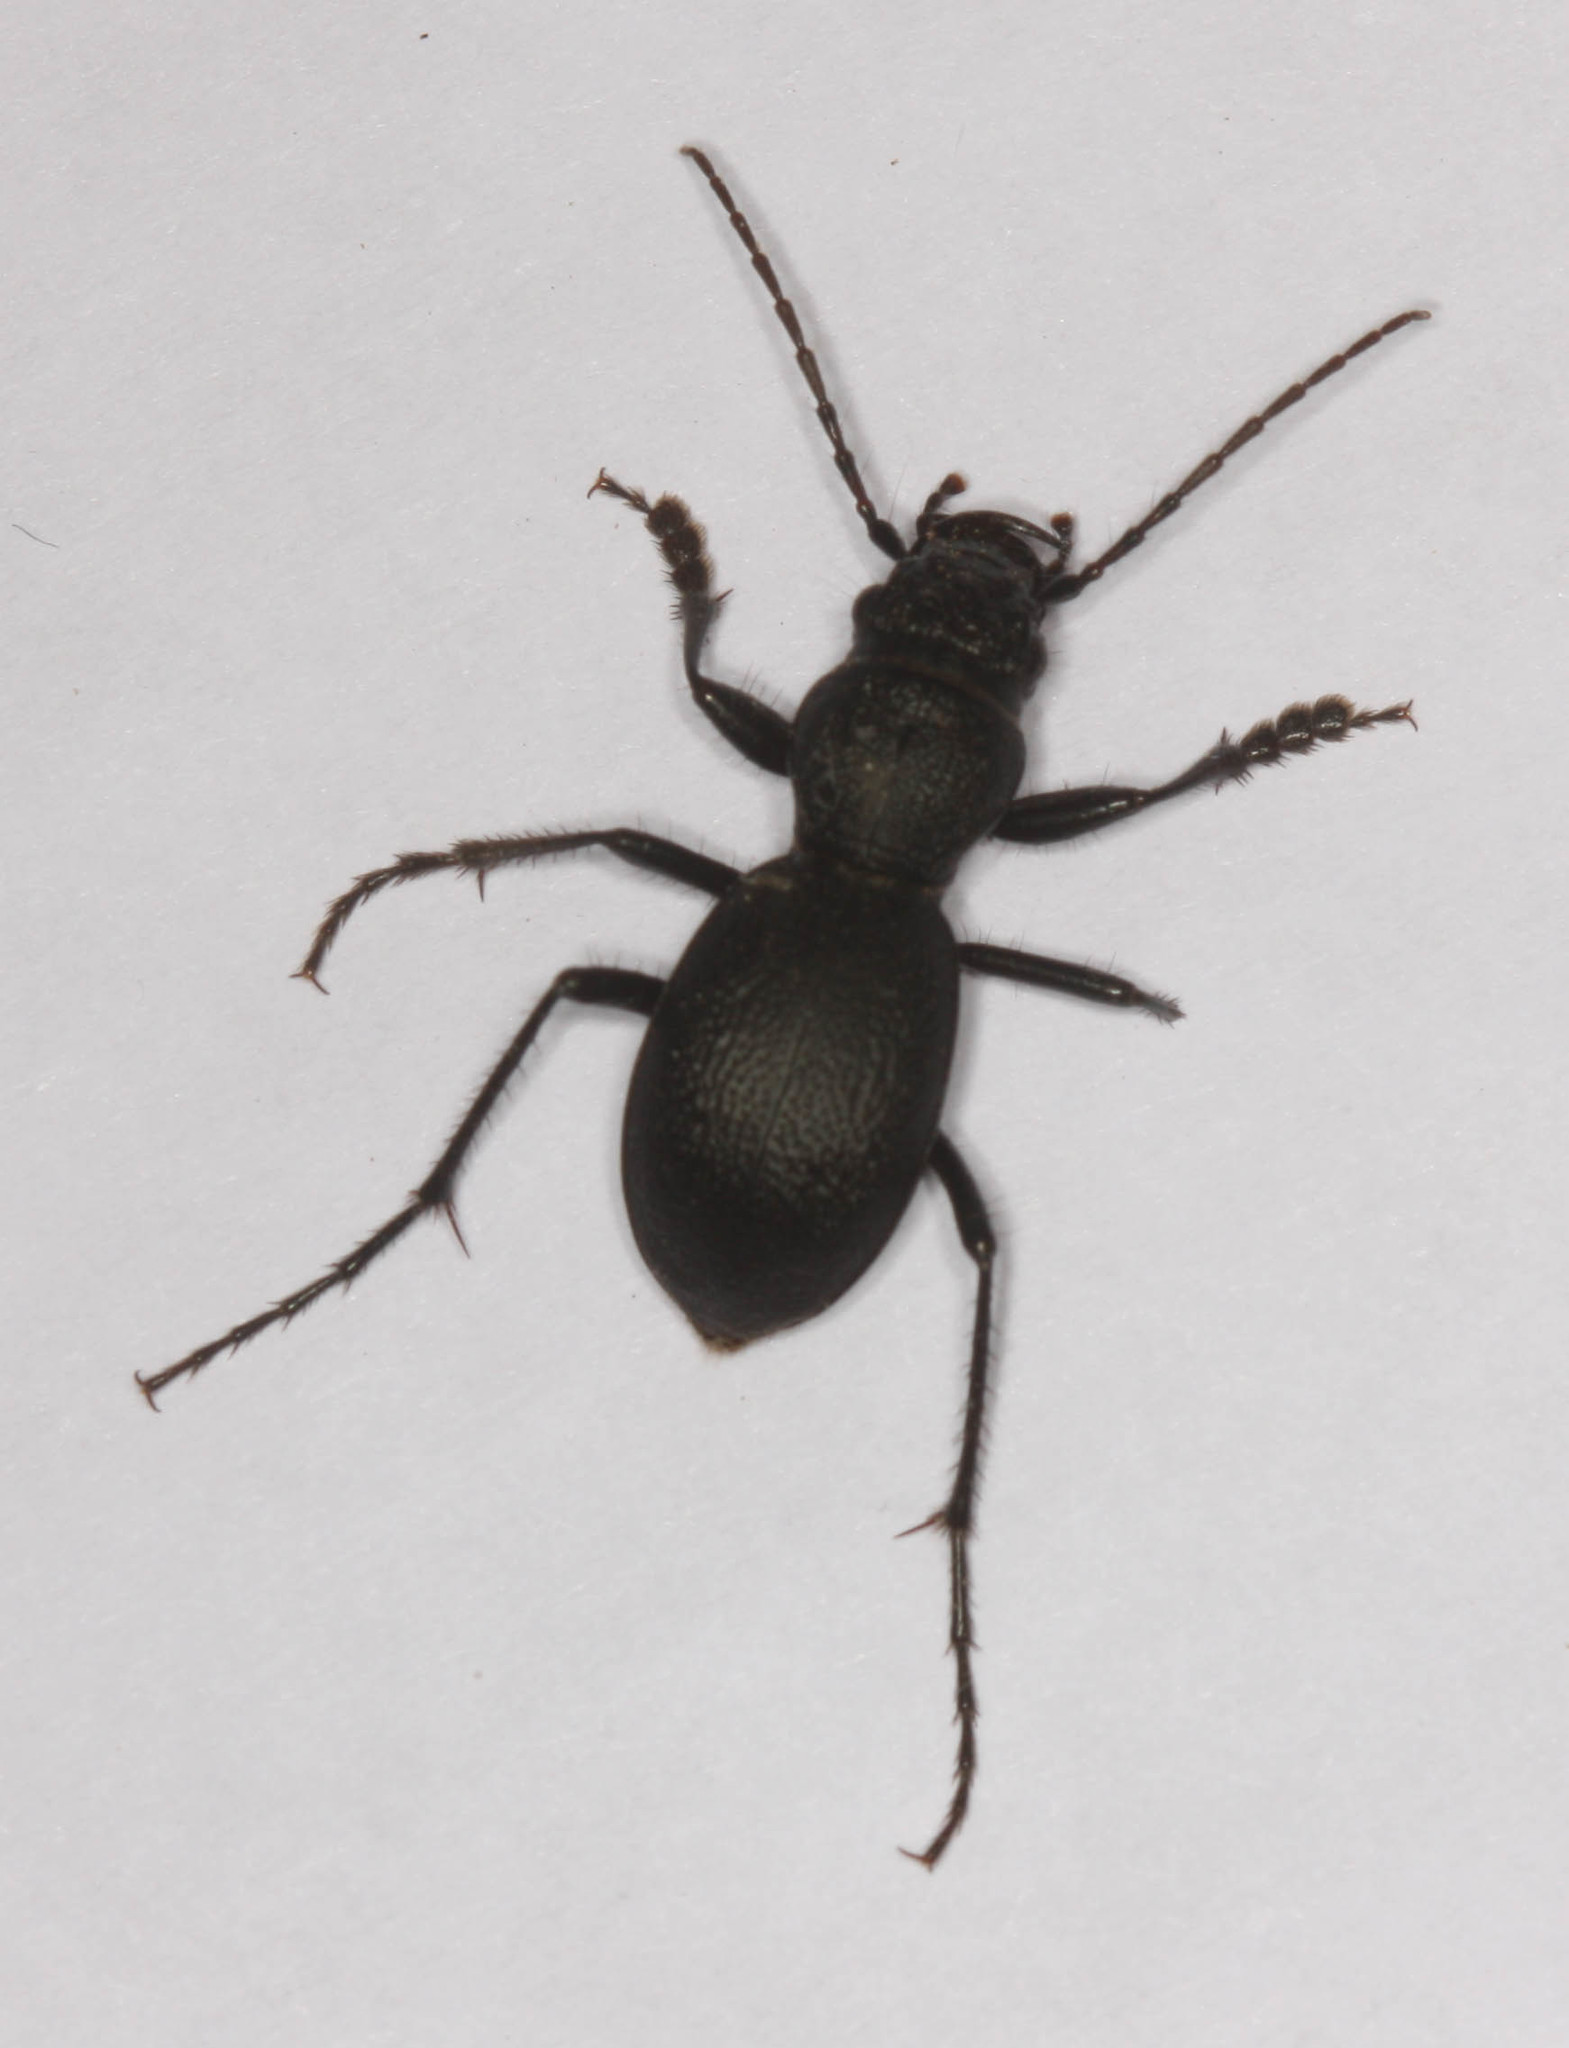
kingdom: Animalia
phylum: Arthropoda
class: Insecta
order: Coleoptera
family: Carabidae
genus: Omus
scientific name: Omus californicus
